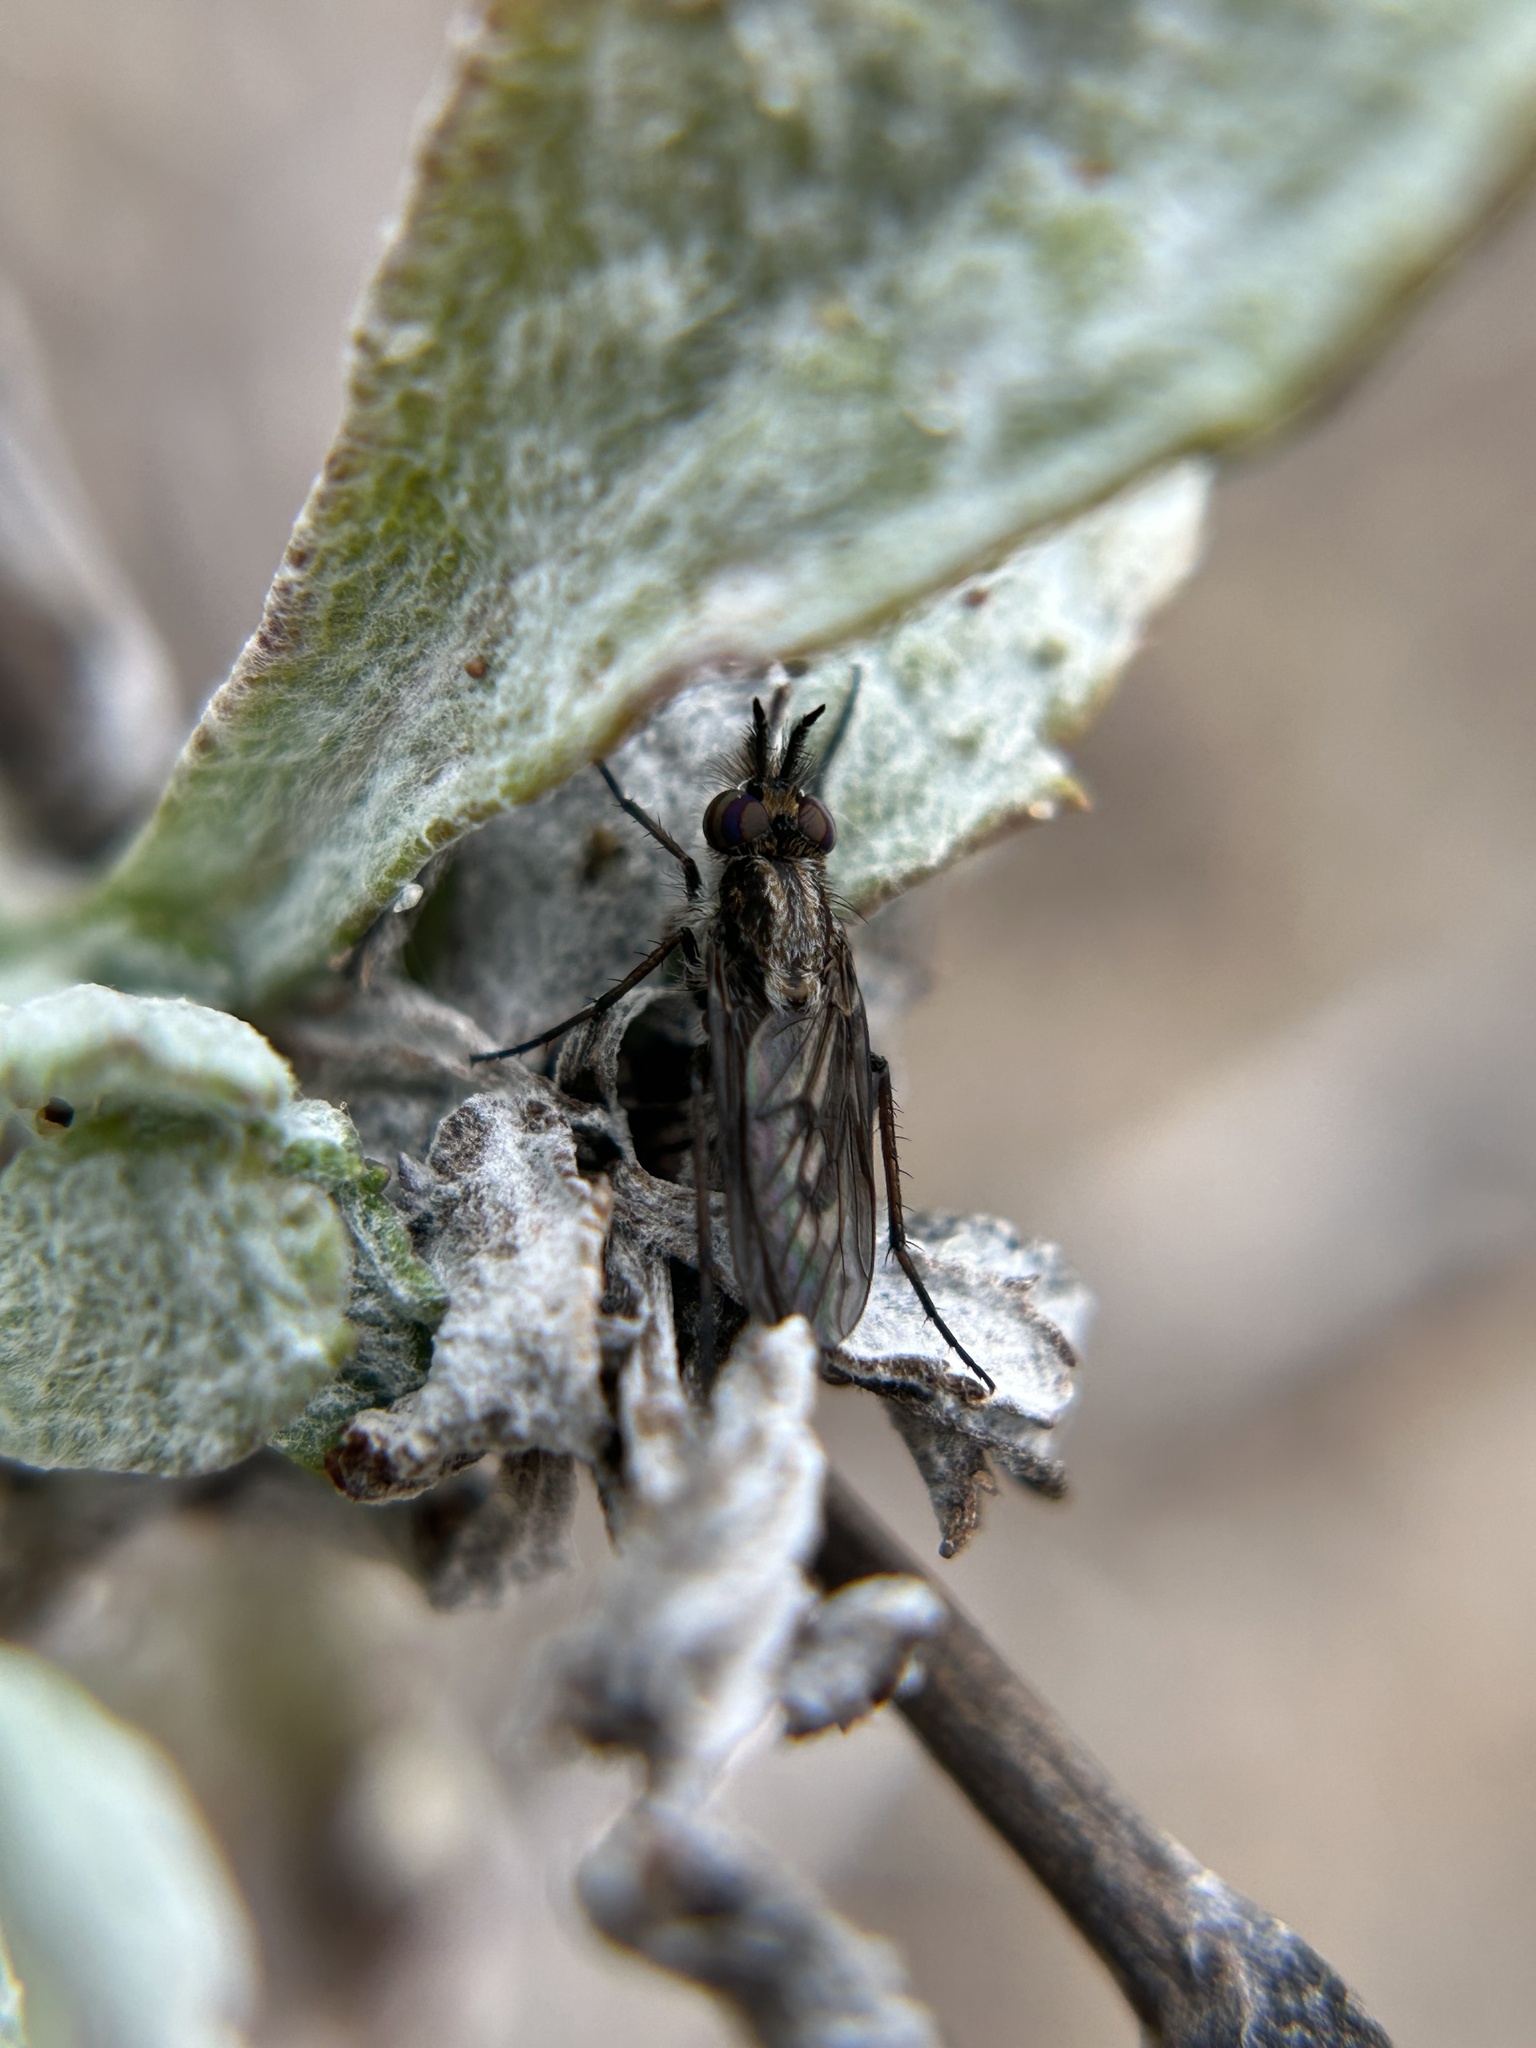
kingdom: Animalia
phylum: Arthropoda
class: Insecta
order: Diptera
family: Therevidae
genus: Nebritus
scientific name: Nebritus powelli
